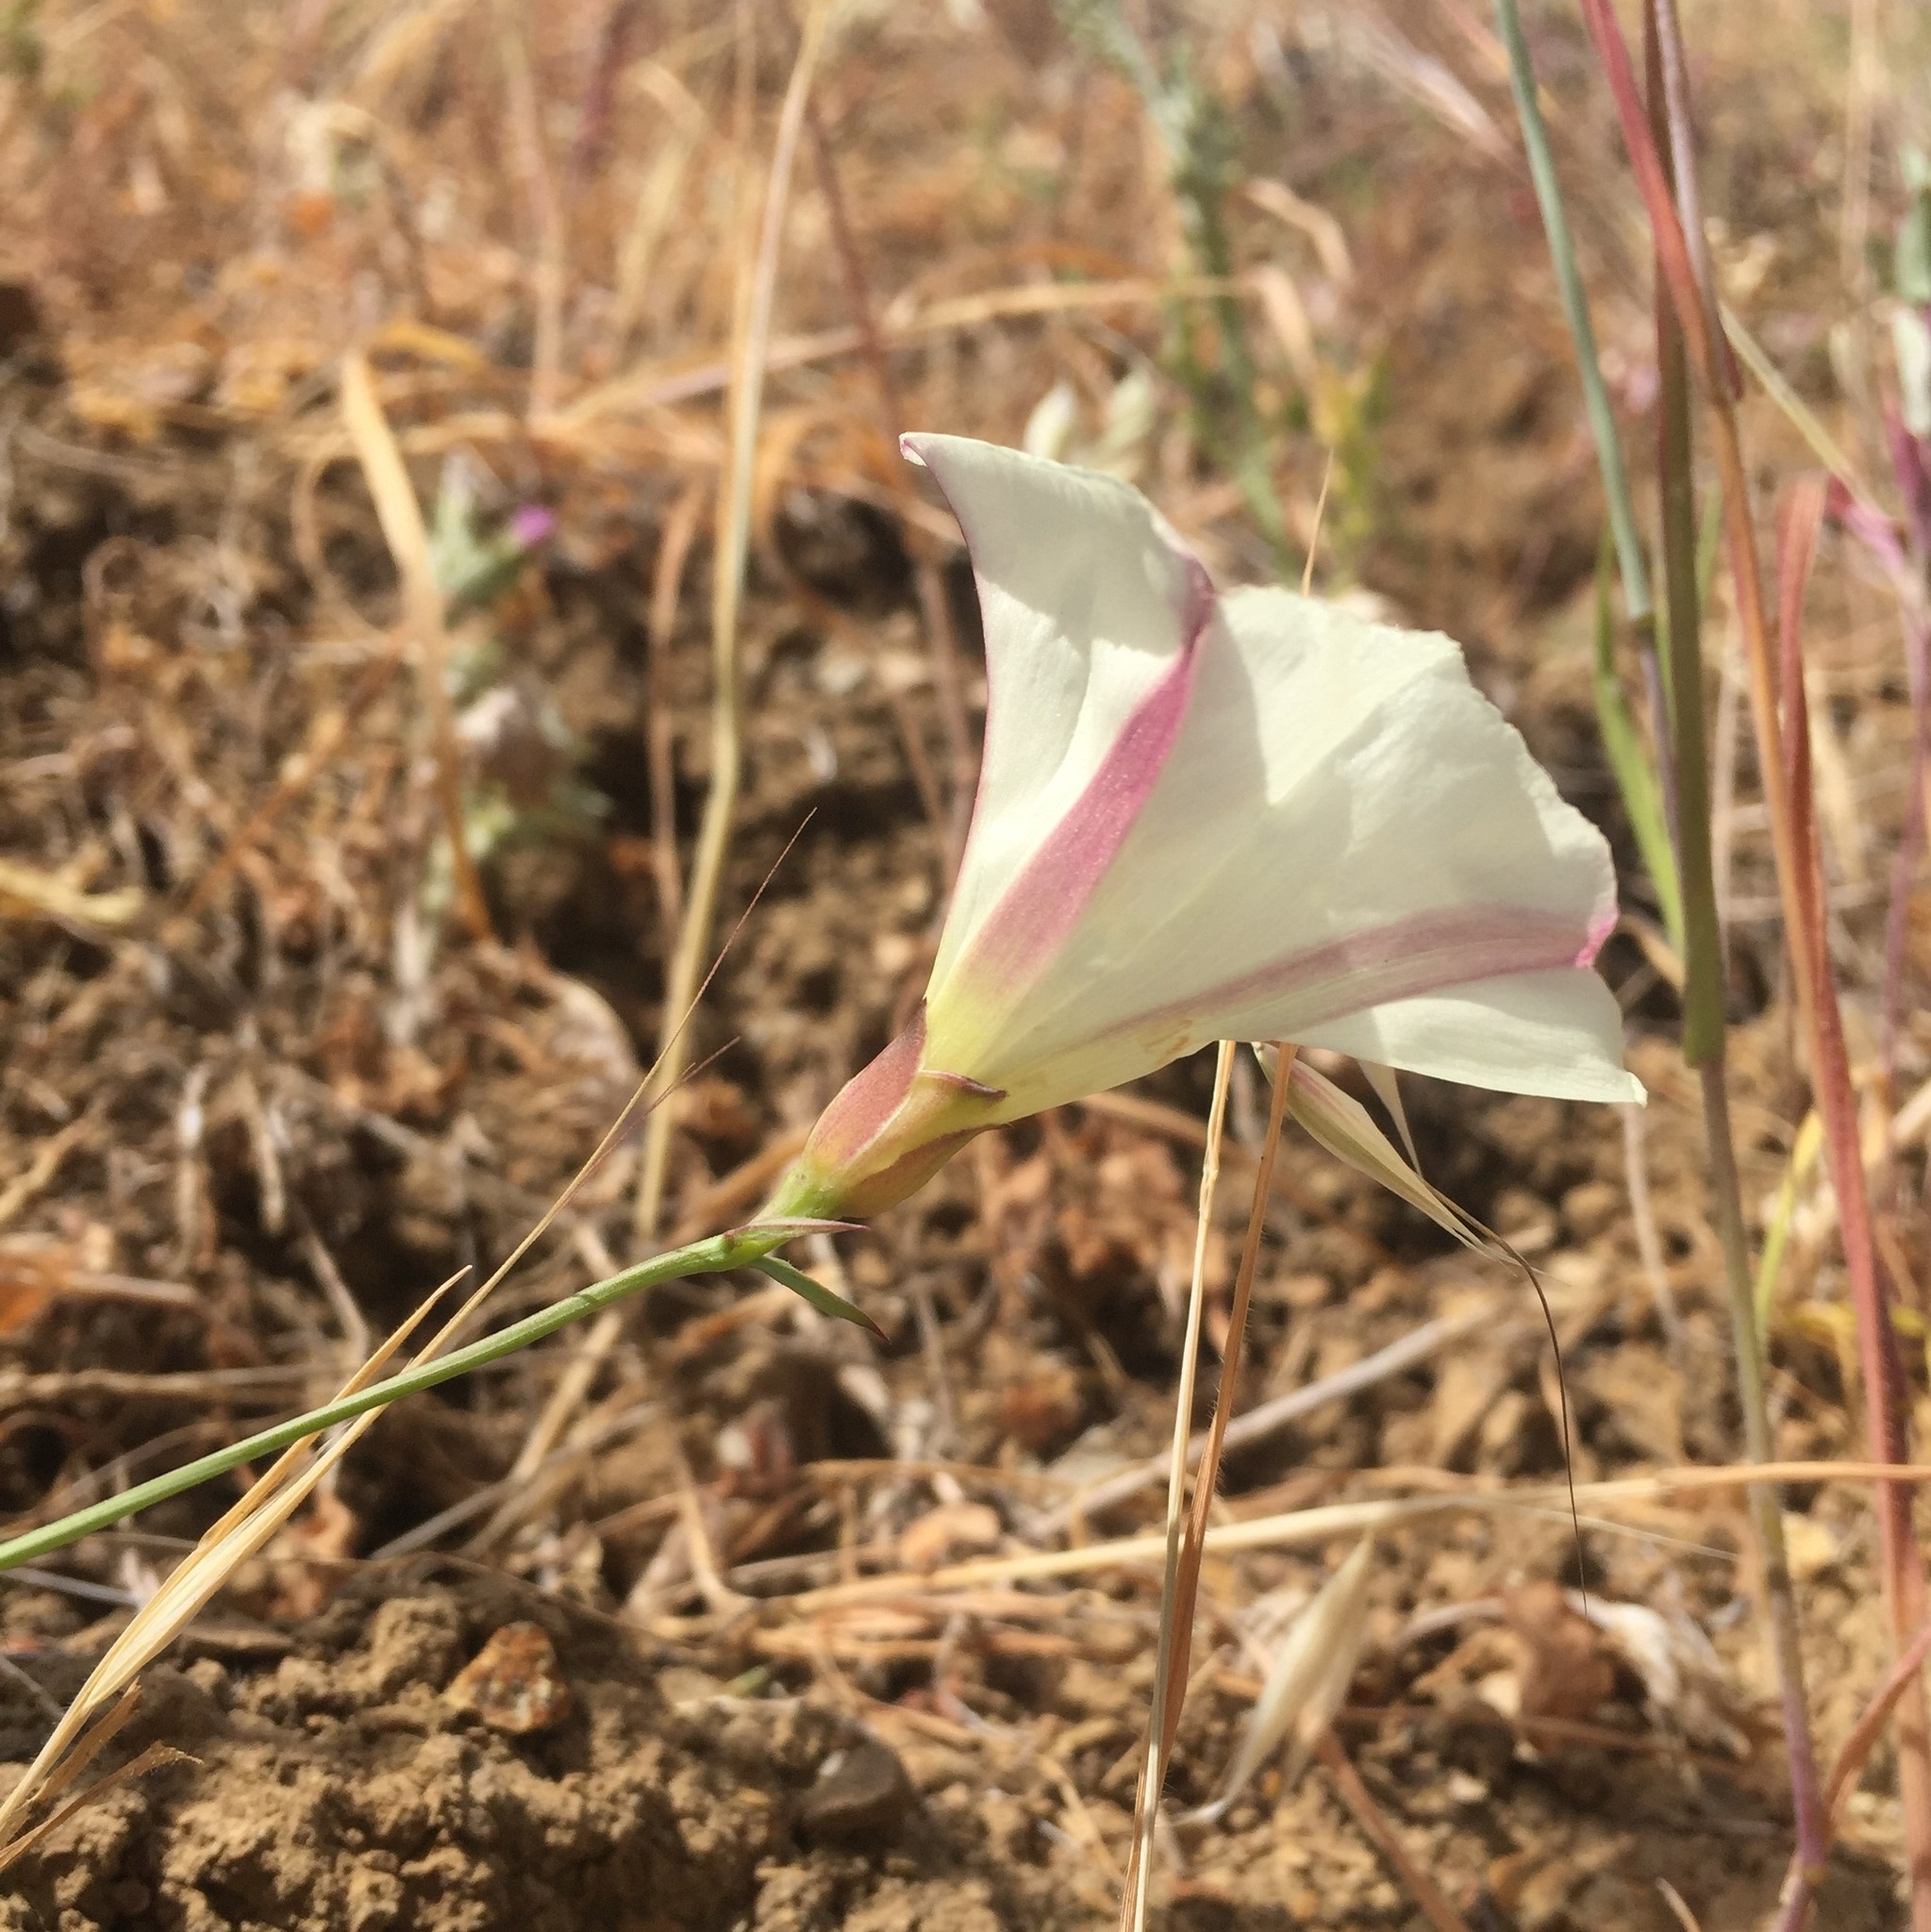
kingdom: Plantae
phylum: Tracheophyta
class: Magnoliopsida
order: Solanales
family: Convolvulaceae
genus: Calystegia
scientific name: Calystegia purpurata
